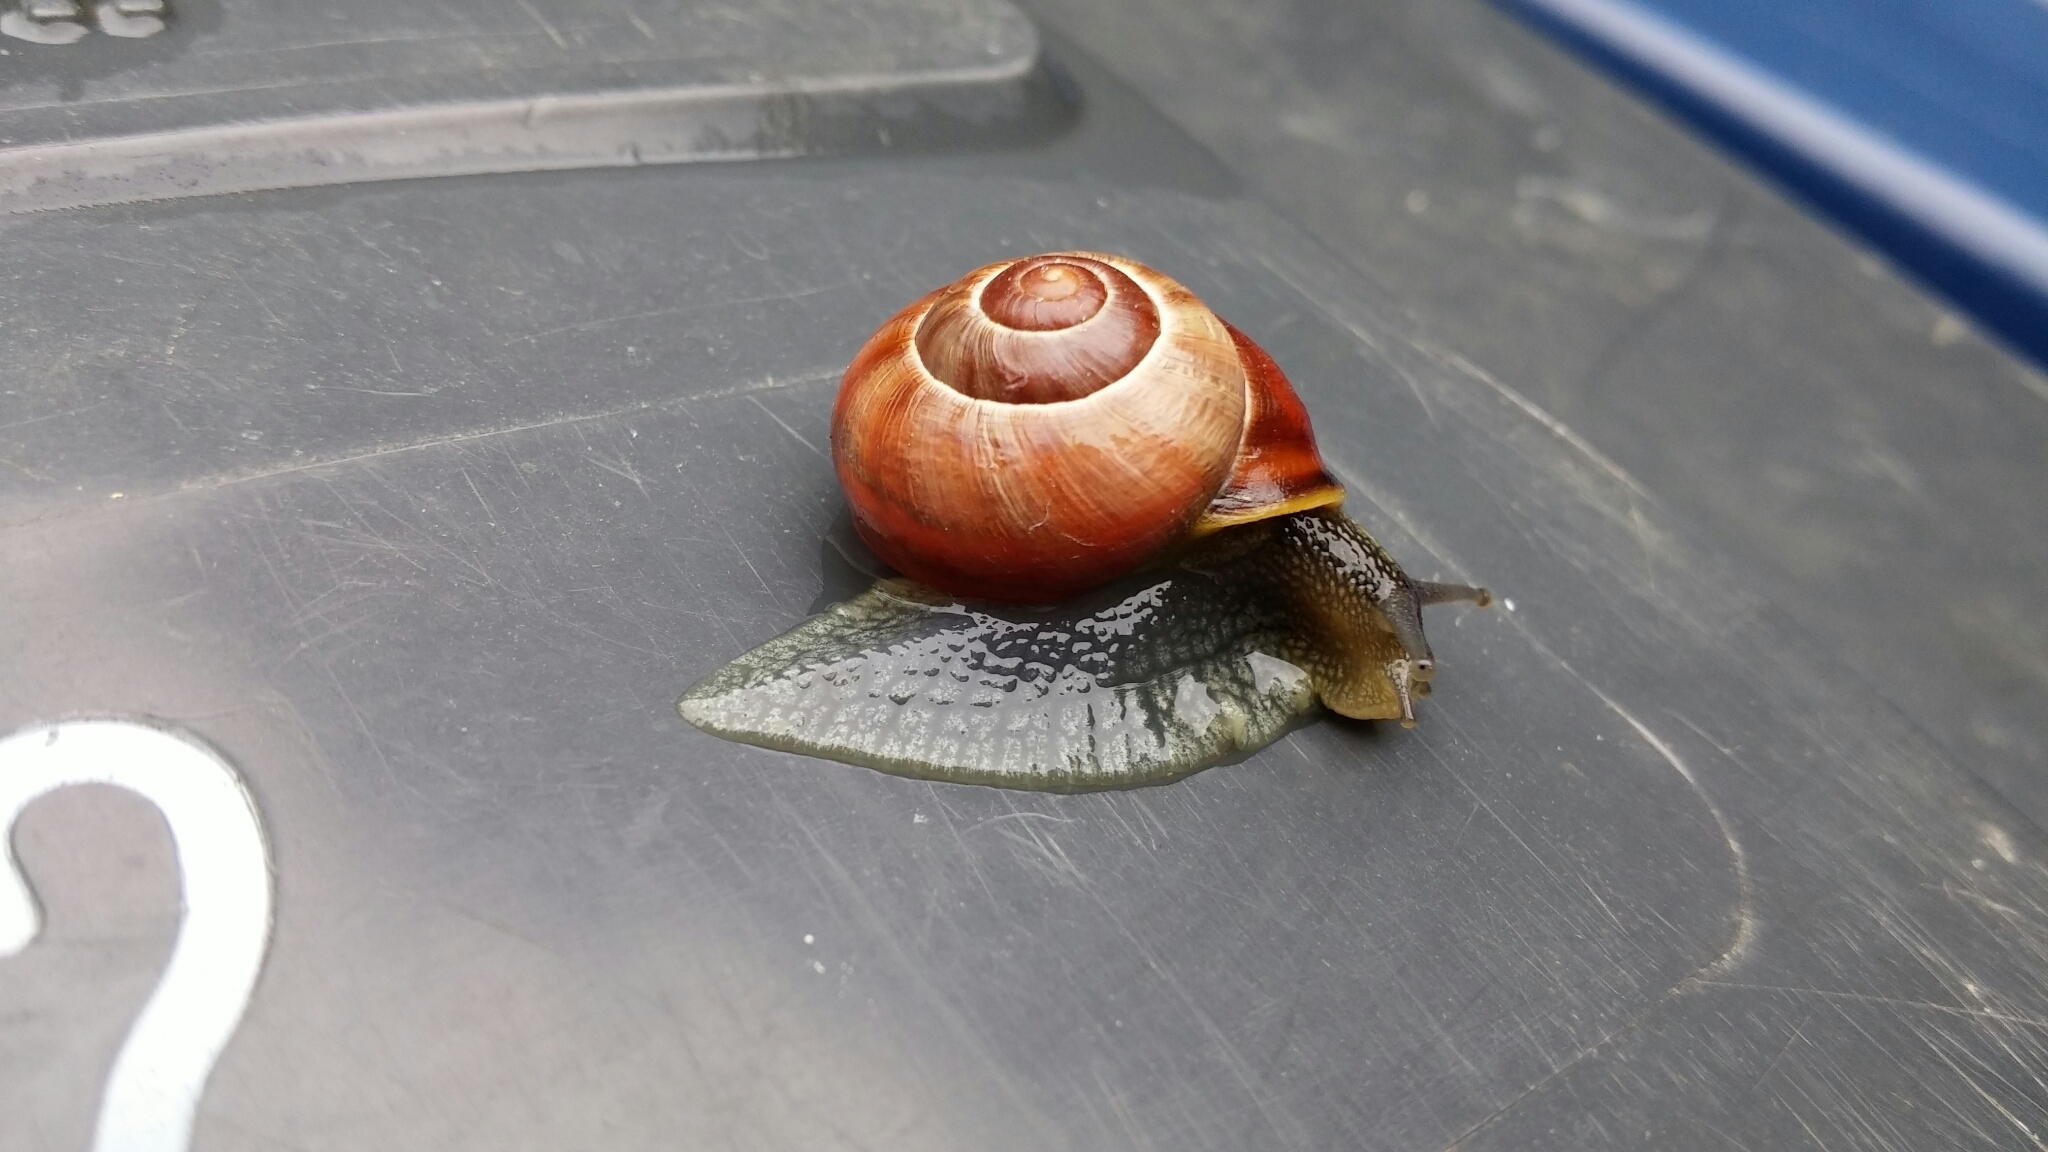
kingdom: Animalia
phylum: Mollusca
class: Gastropoda
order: Stylommatophora
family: Helicidae
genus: Cepaea
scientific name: Cepaea nemoralis
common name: Grovesnail
